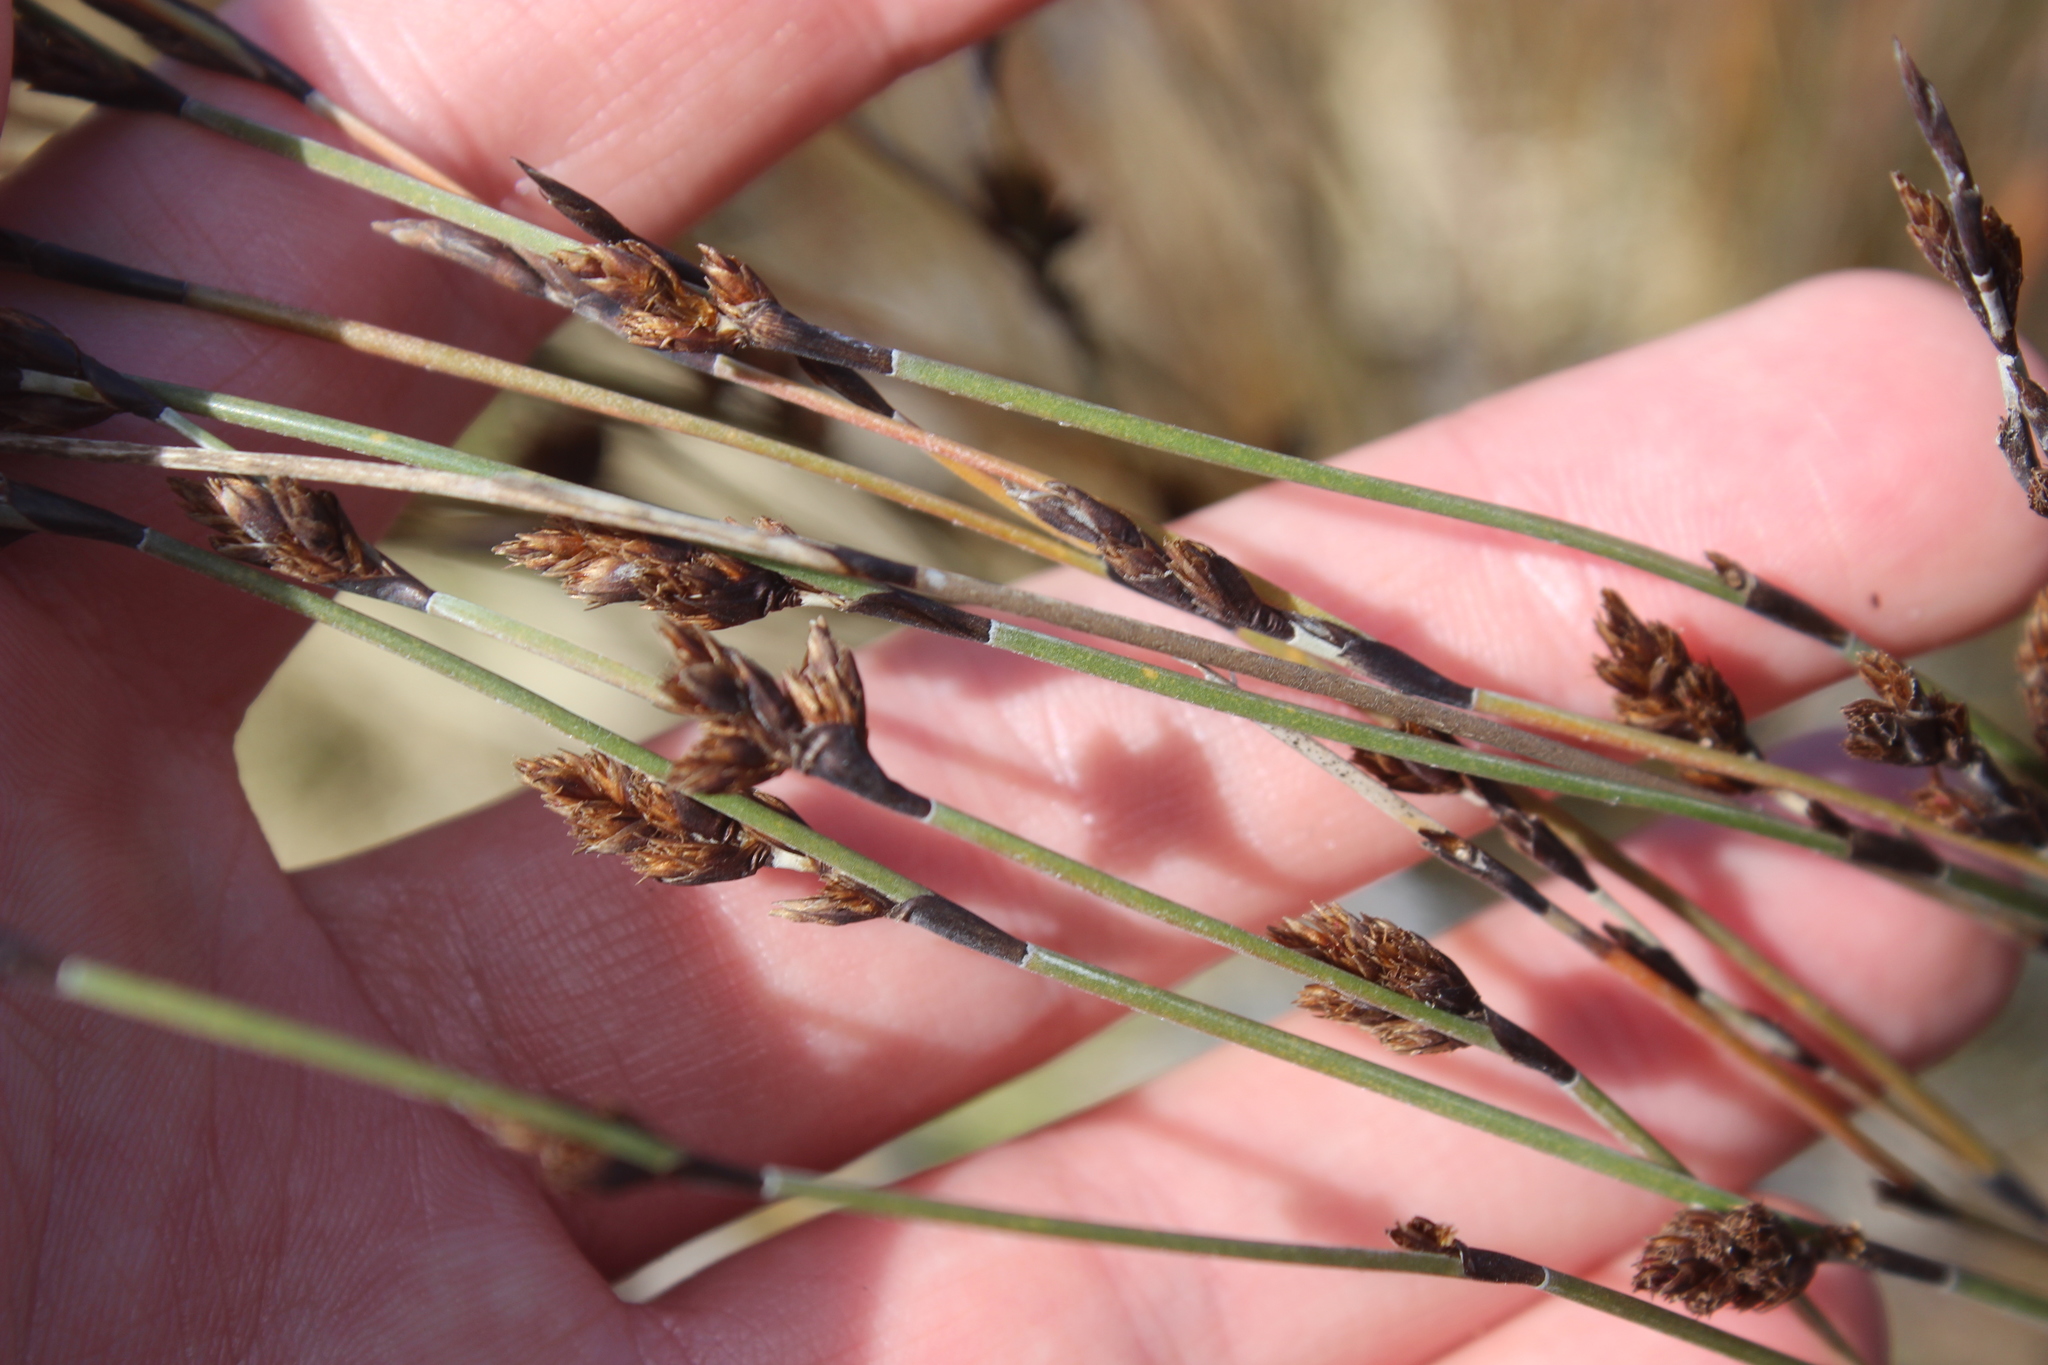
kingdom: Plantae
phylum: Tracheophyta
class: Liliopsida
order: Poales
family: Restionaceae
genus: Apodasmia
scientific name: Apodasmia similis
